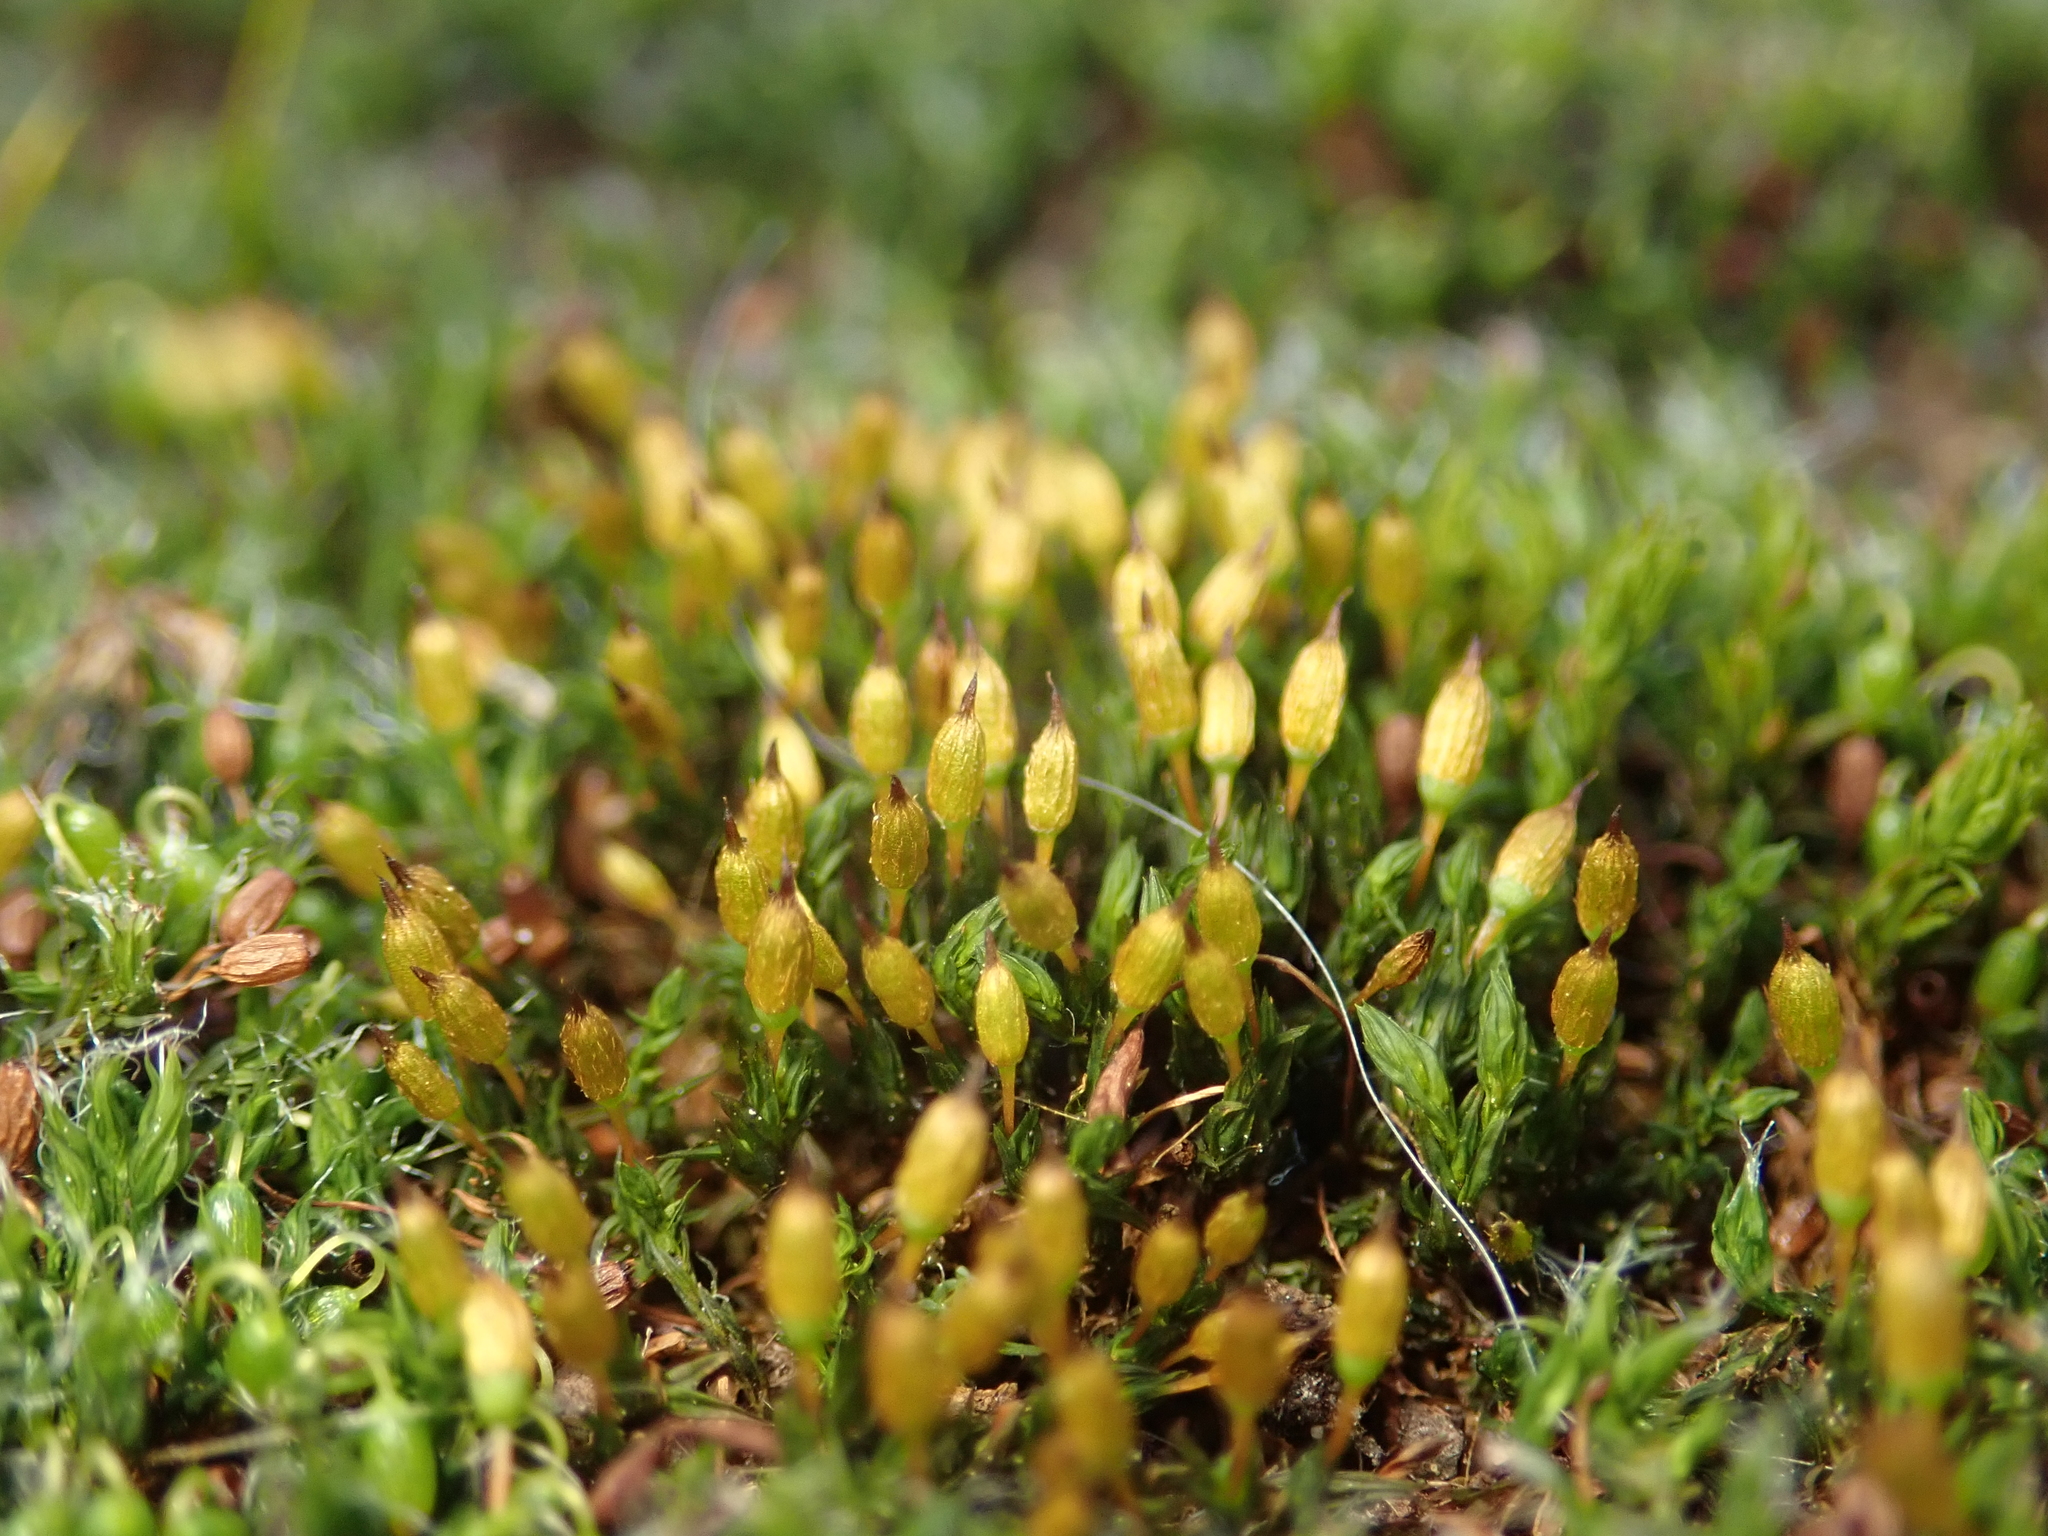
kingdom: Plantae
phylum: Bryophyta
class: Bryopsida
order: Orthotrichales
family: Orthotrichaceae
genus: Orthotrichum
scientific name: Orthotrichum anomalum
